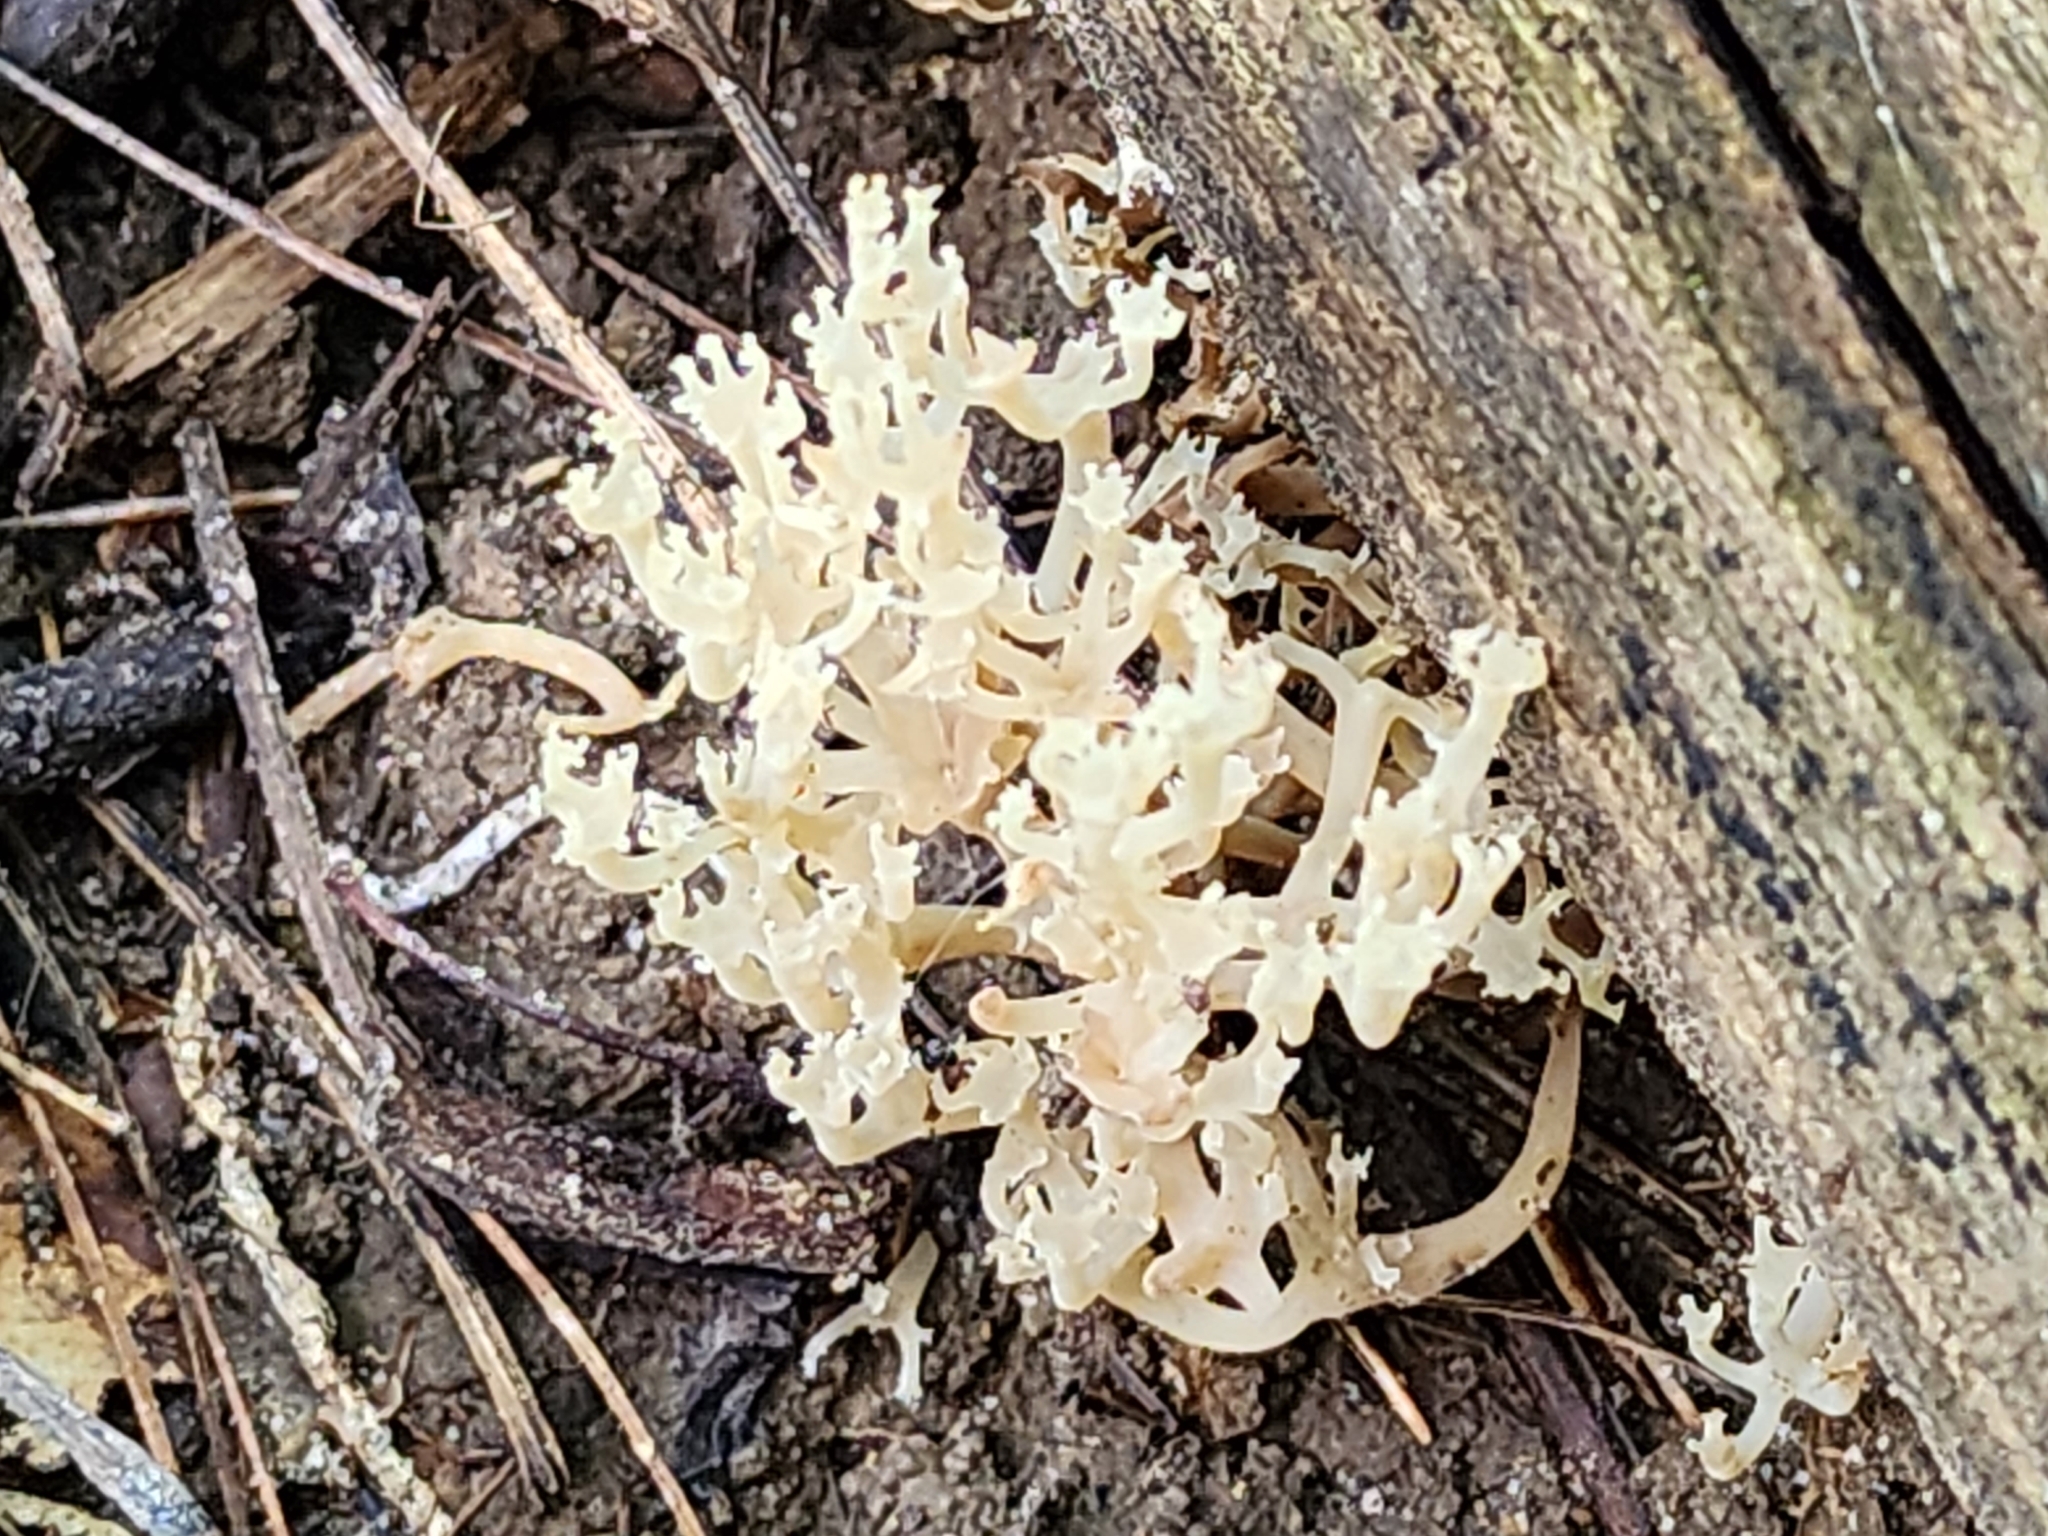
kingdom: Fungi
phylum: Basidiomycota
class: Agaricomycetes
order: Russulales
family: Auriscalpiaceae
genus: Artomyces
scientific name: Artomyces pyxidatus
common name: Crown-tipped coral fungus
